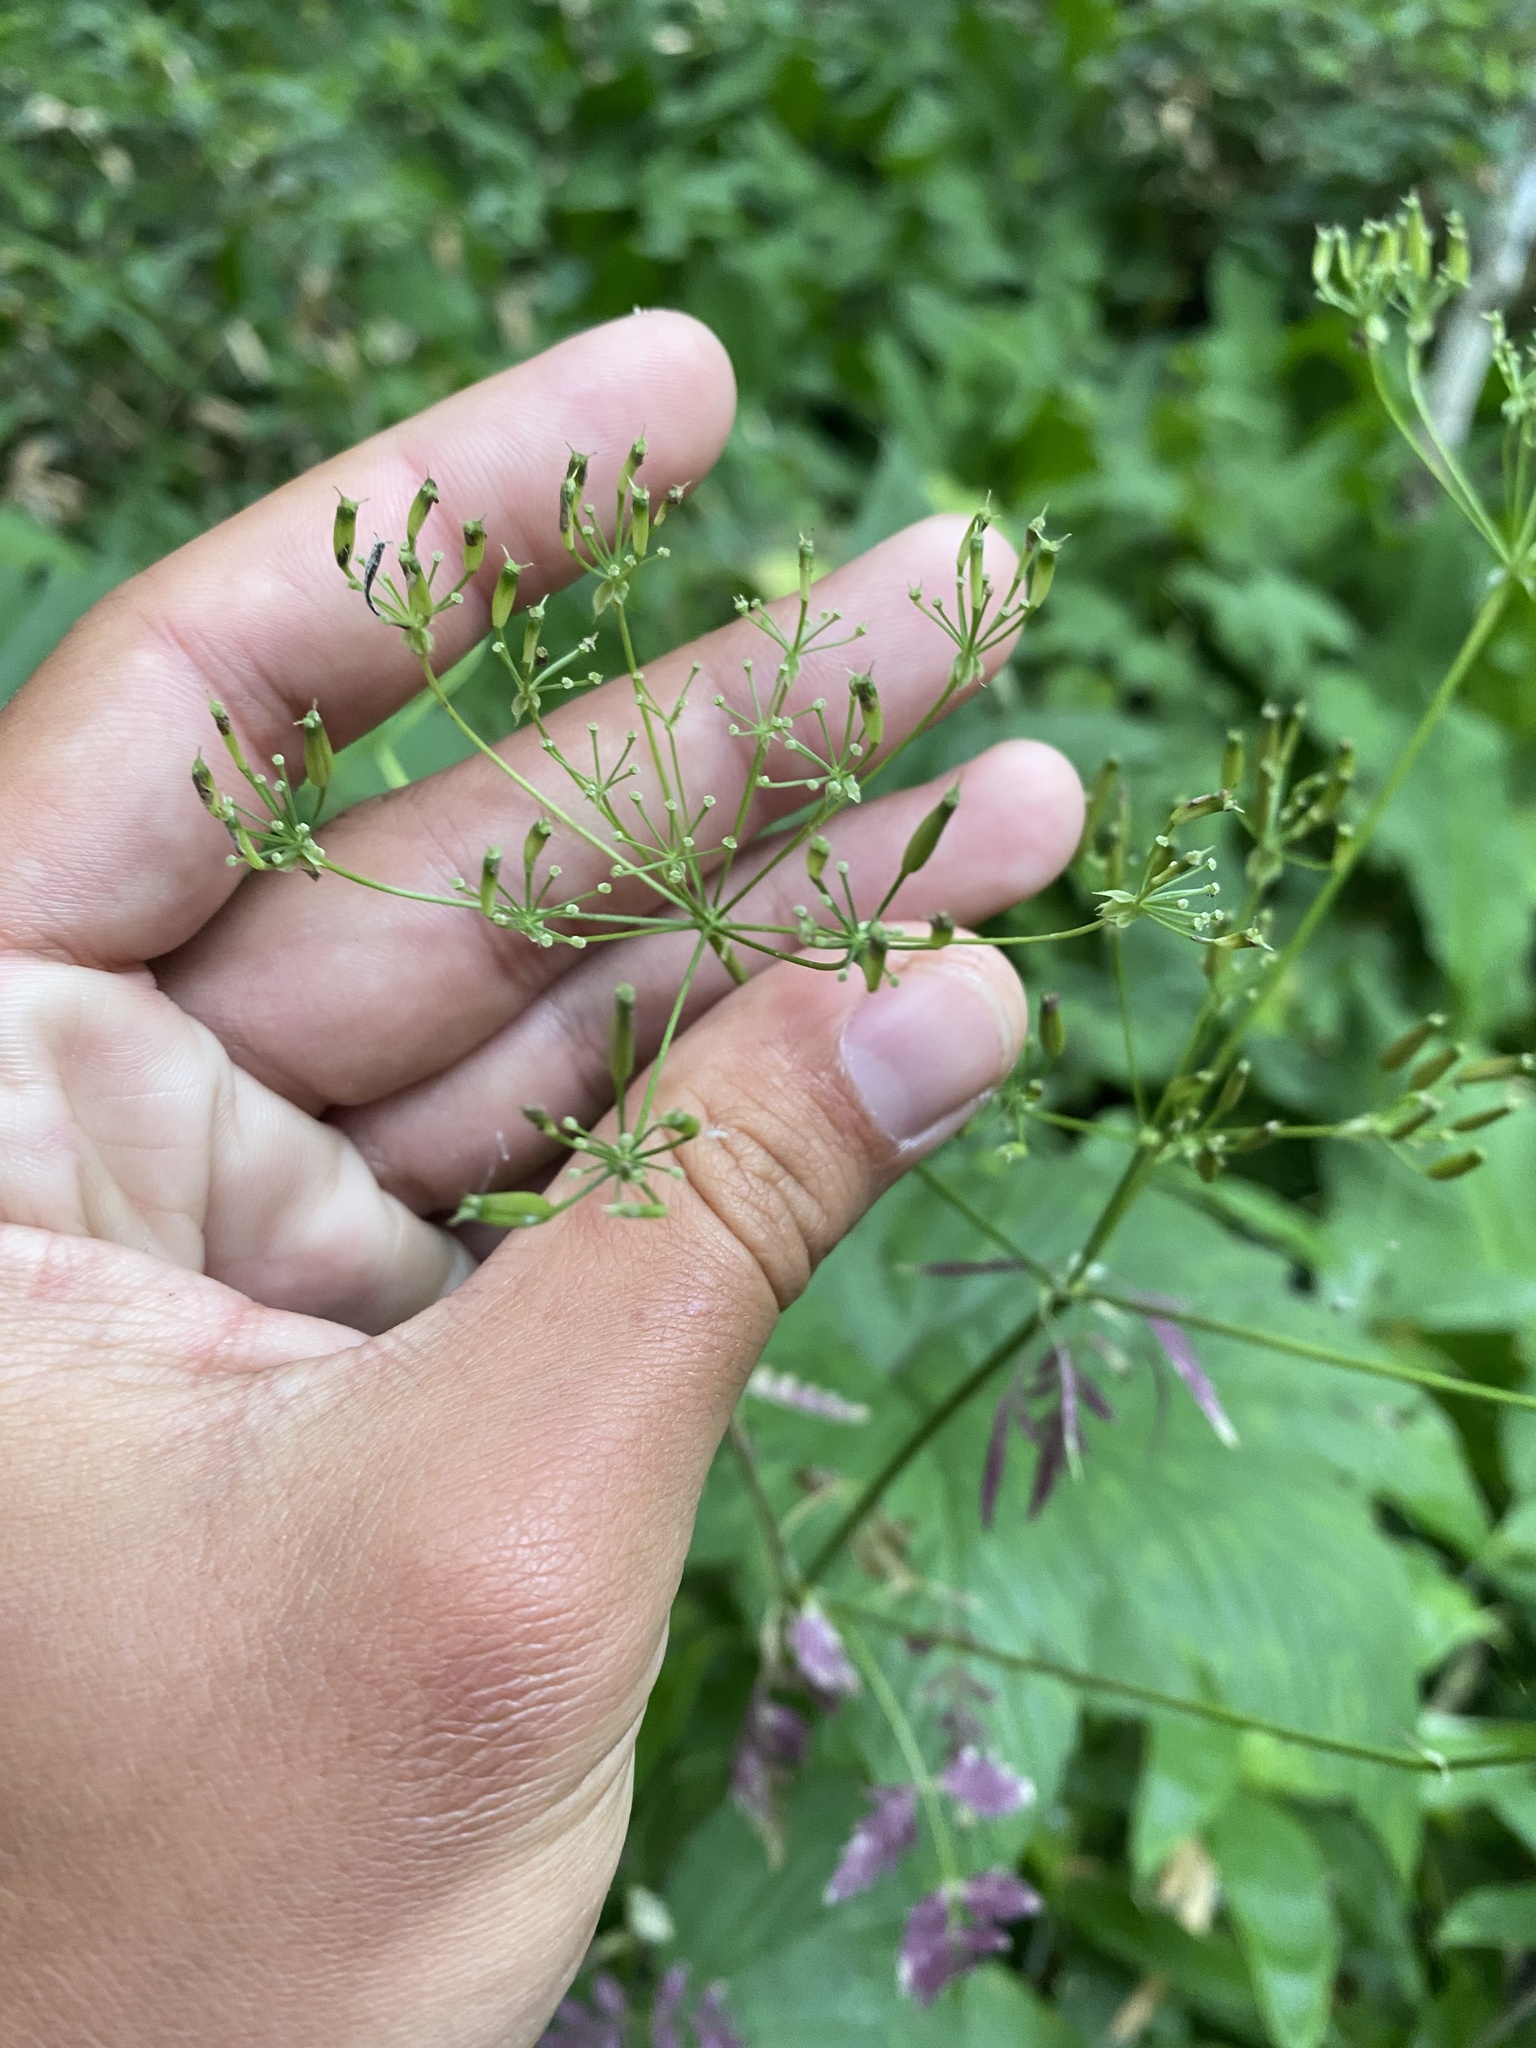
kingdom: Plantae
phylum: Tracheophyta
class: Magnoliopsida
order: Apiales
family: Apiaceae
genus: Anthriscus
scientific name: Anthriscus sylvestris
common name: Cow parsley
